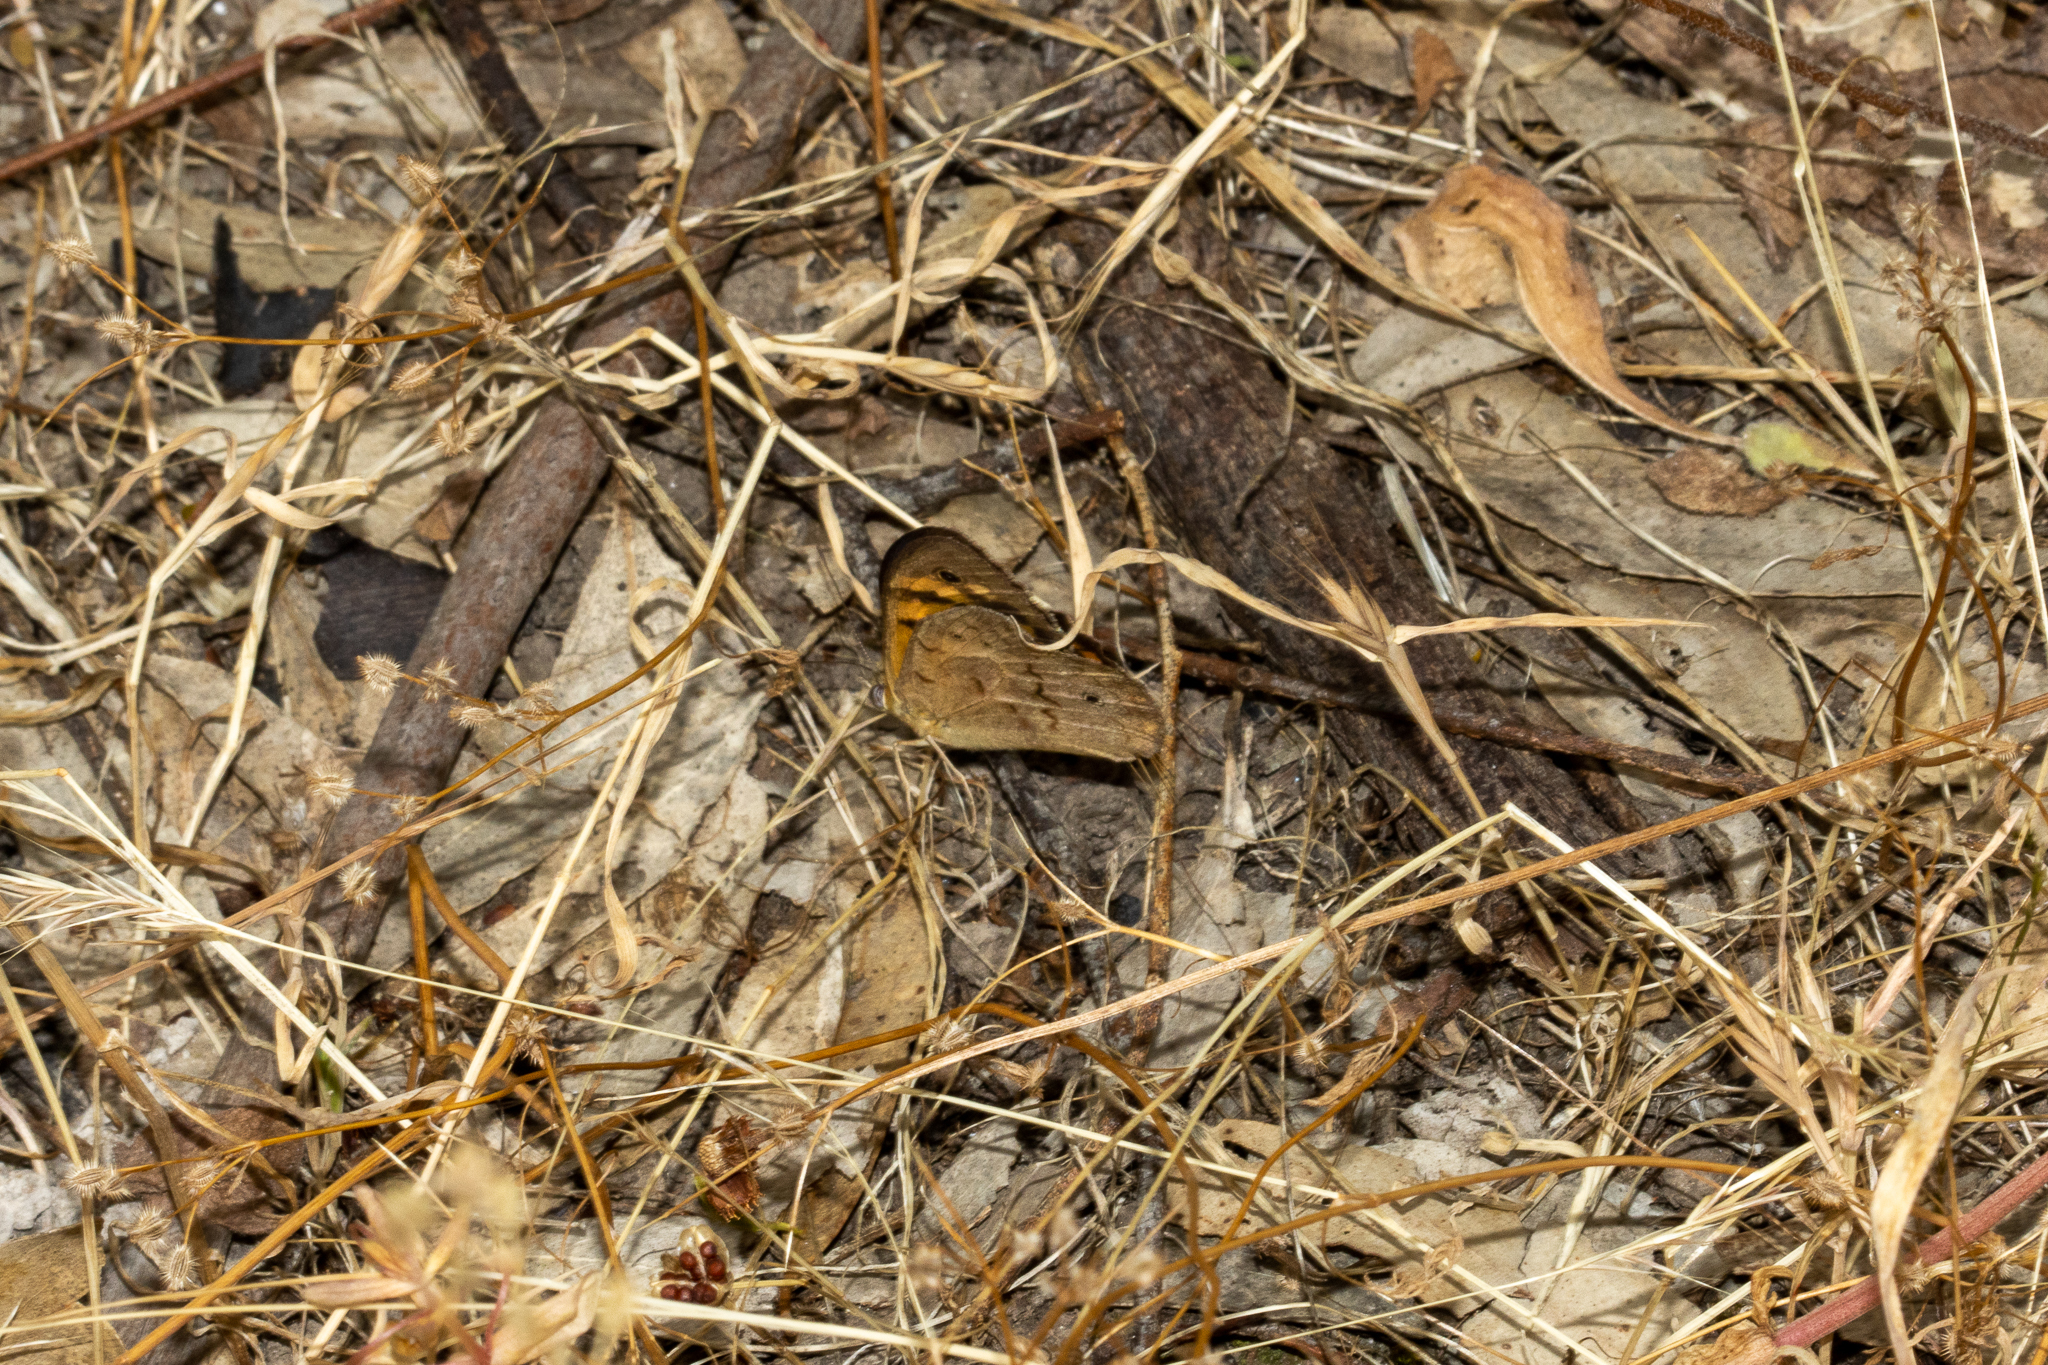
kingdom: Animalia
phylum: Arthropoda
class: Insecta
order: Lepidoptera
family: Nymphalidae
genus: Heteronympha
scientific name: Heteronympha merope
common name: Common brown
